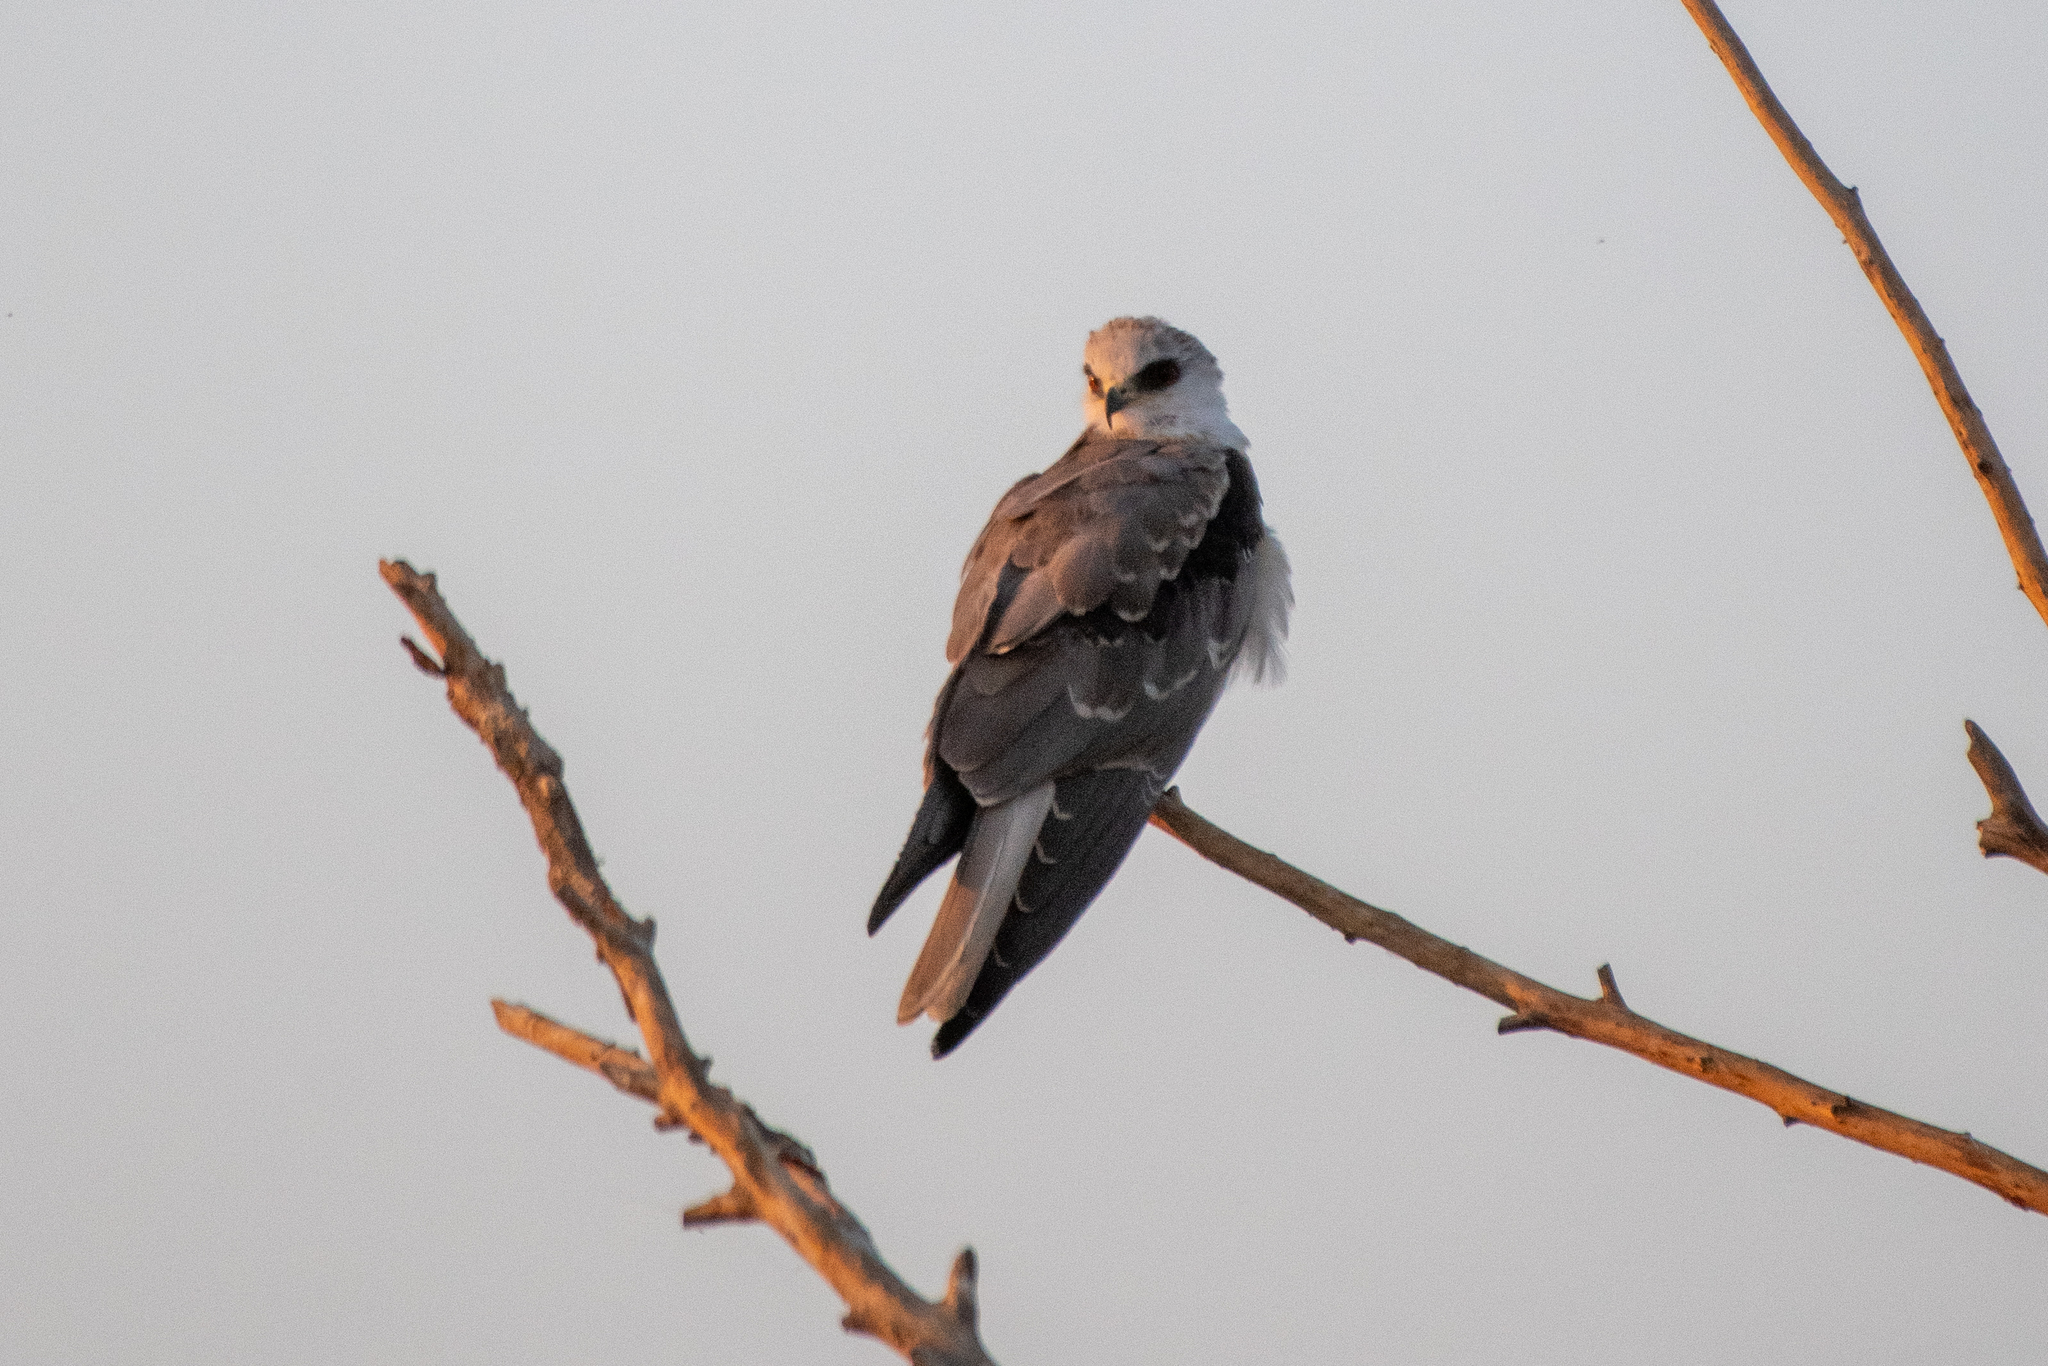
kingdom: Animalia
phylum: Chordata
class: Aves
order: Accipitriformes
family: Accipitridae
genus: Elanus
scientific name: Elanus leucurus
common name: White-tailed kite
